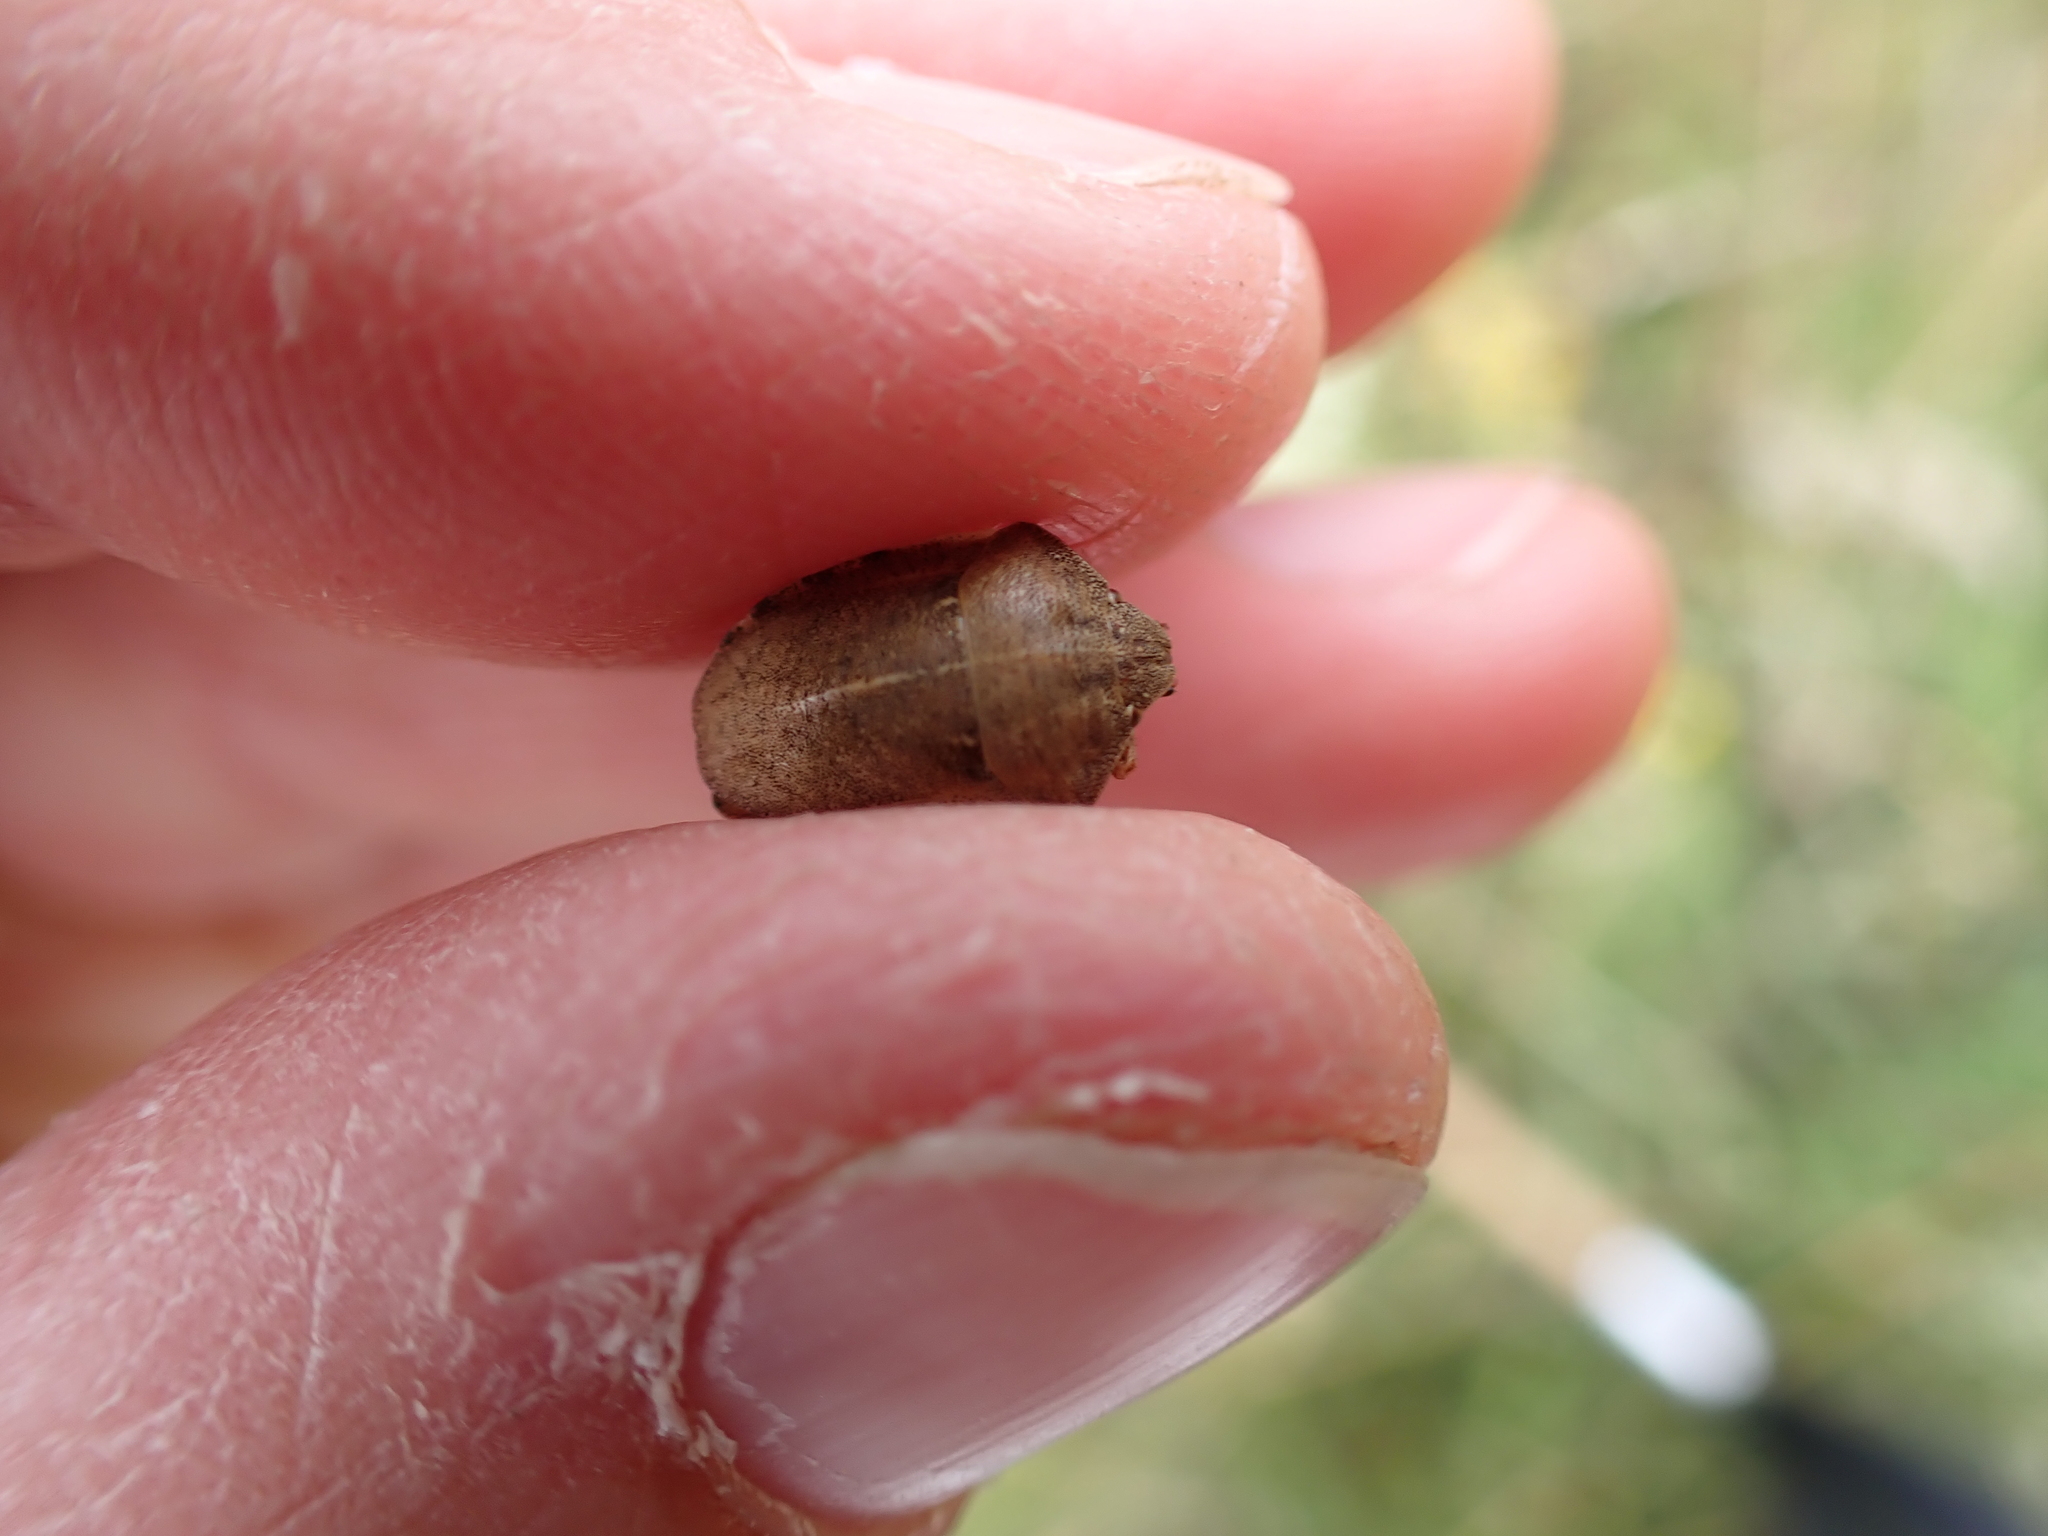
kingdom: Animalia
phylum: Arthropoda
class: Insecta
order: Hemiptera
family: Scutelleridae
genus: Eurygaster
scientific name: Eurygaster testudinaria
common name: Tortoise bug
